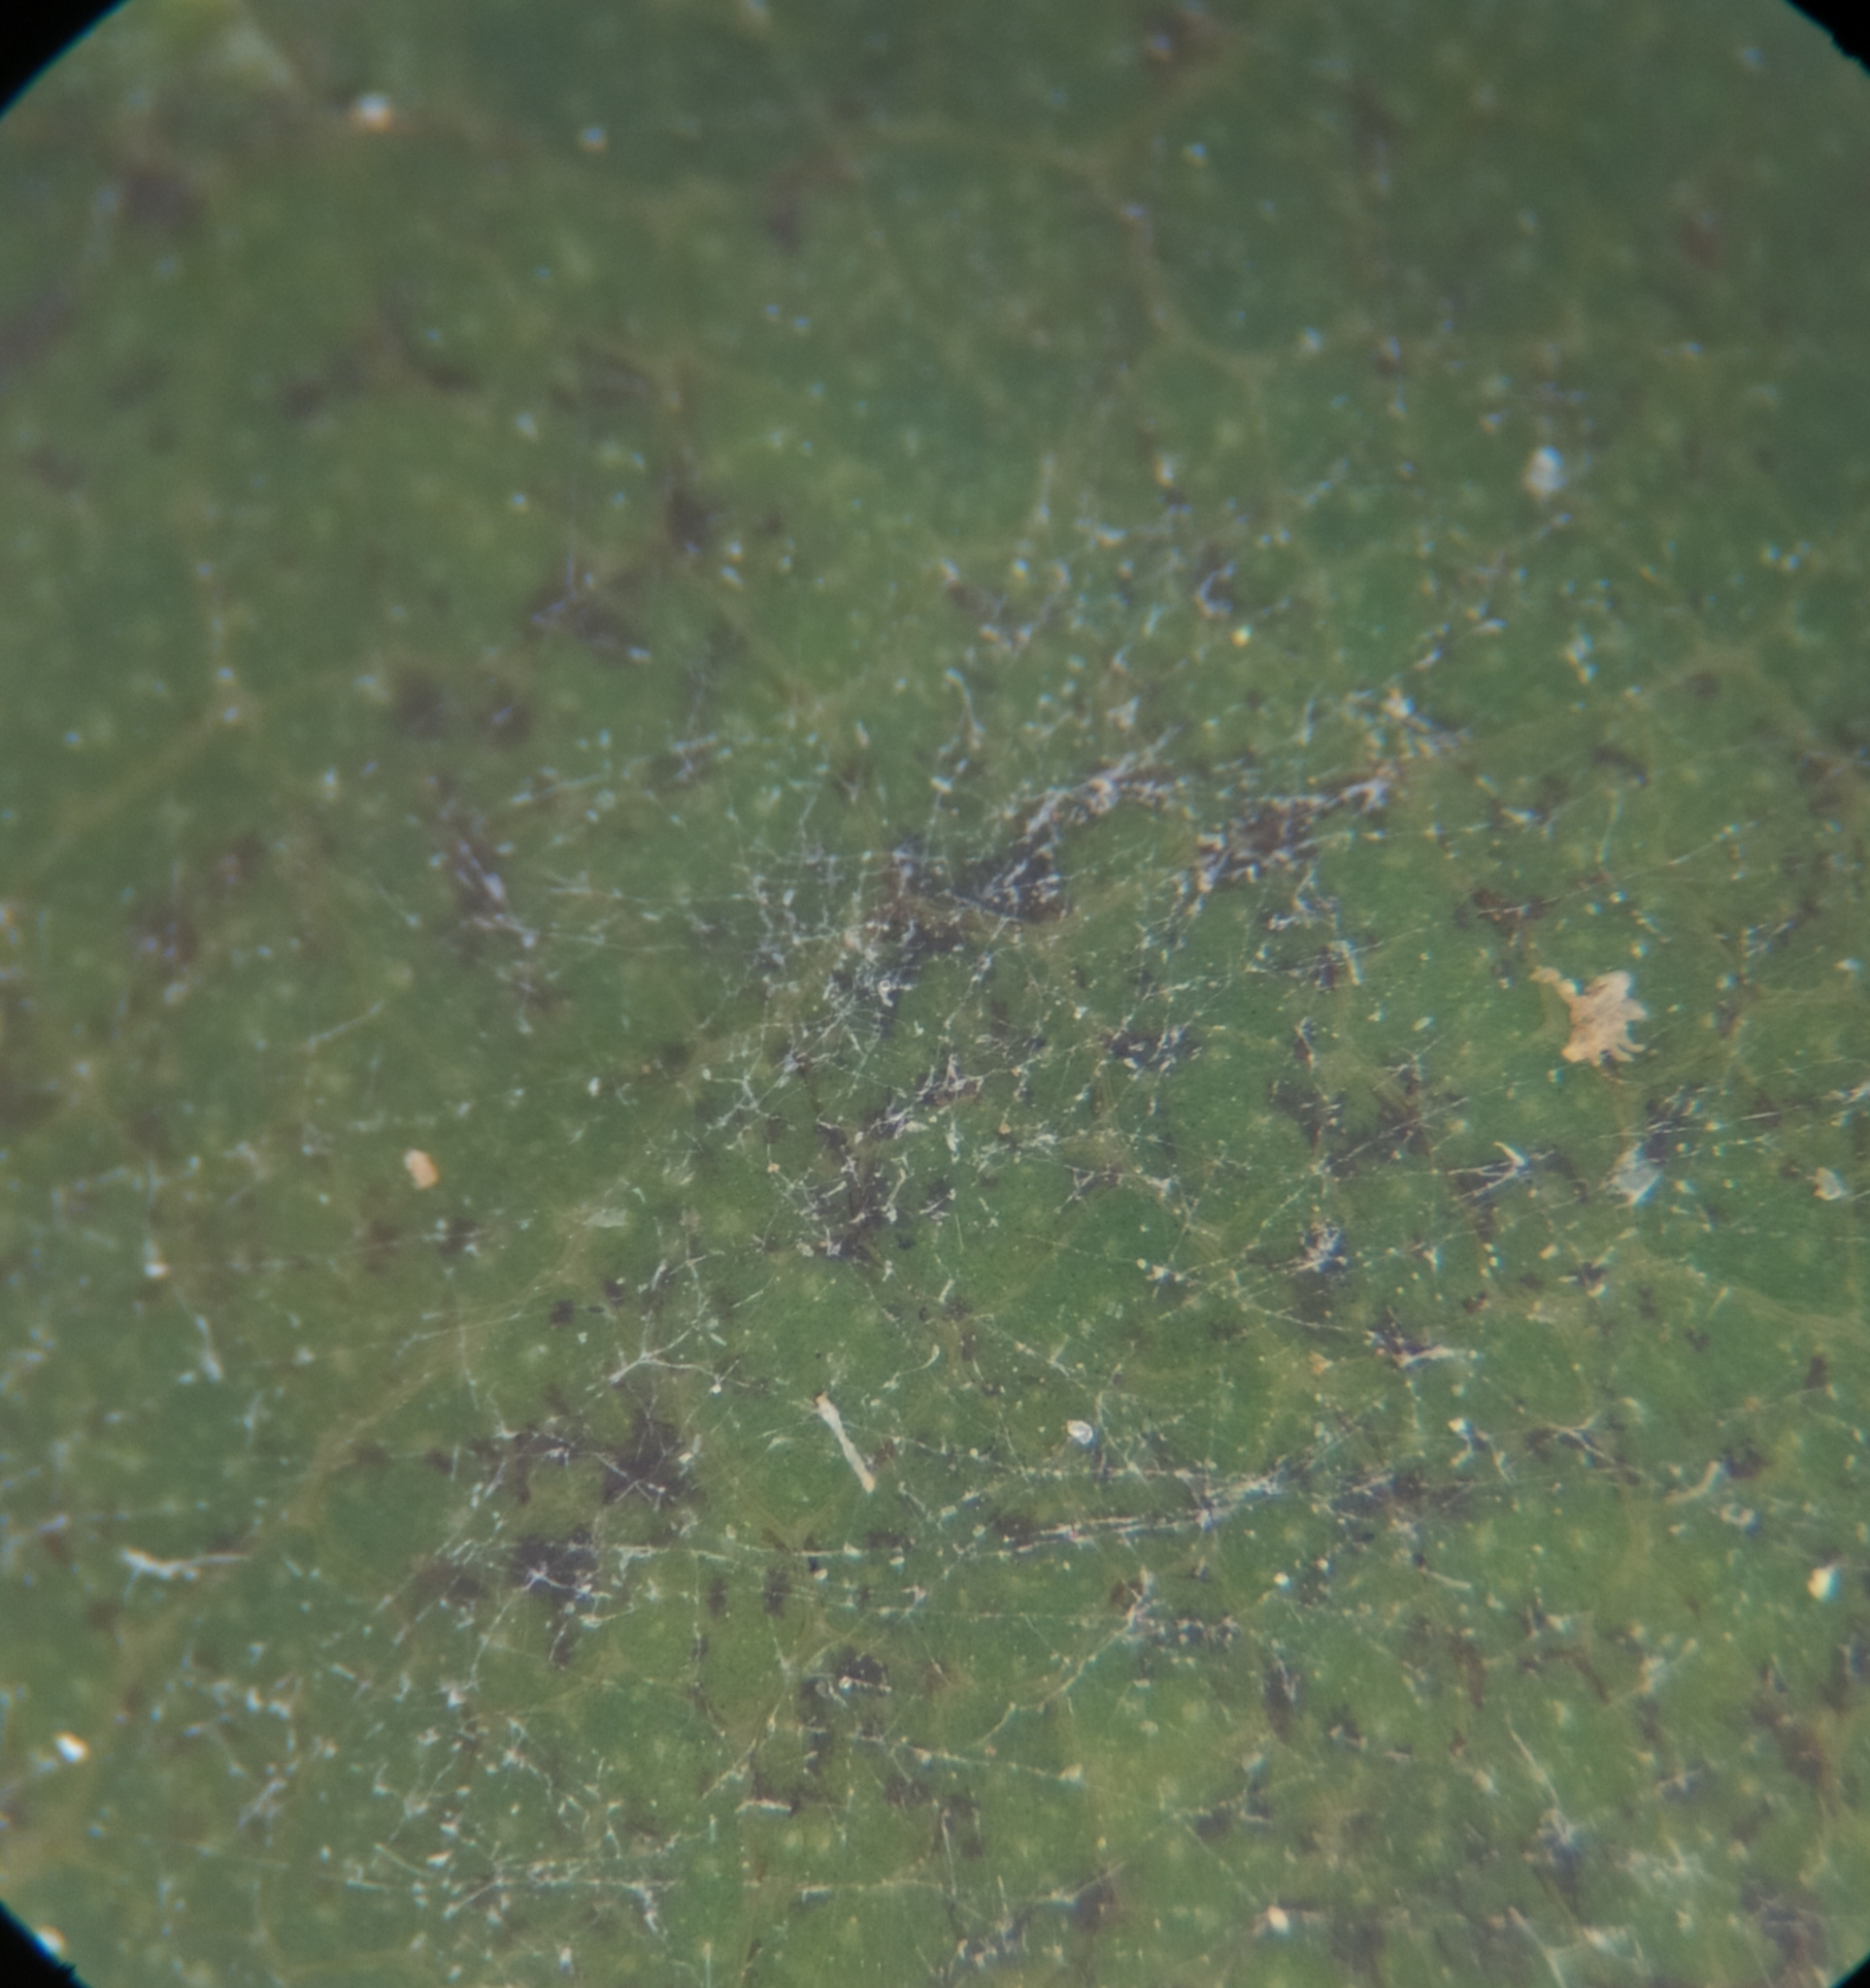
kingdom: Fungi
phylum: Ascomycota
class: Leotiomycetes
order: Helotiales
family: Erysiphaceae
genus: Erysiphe
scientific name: Erysiphe arcuata
